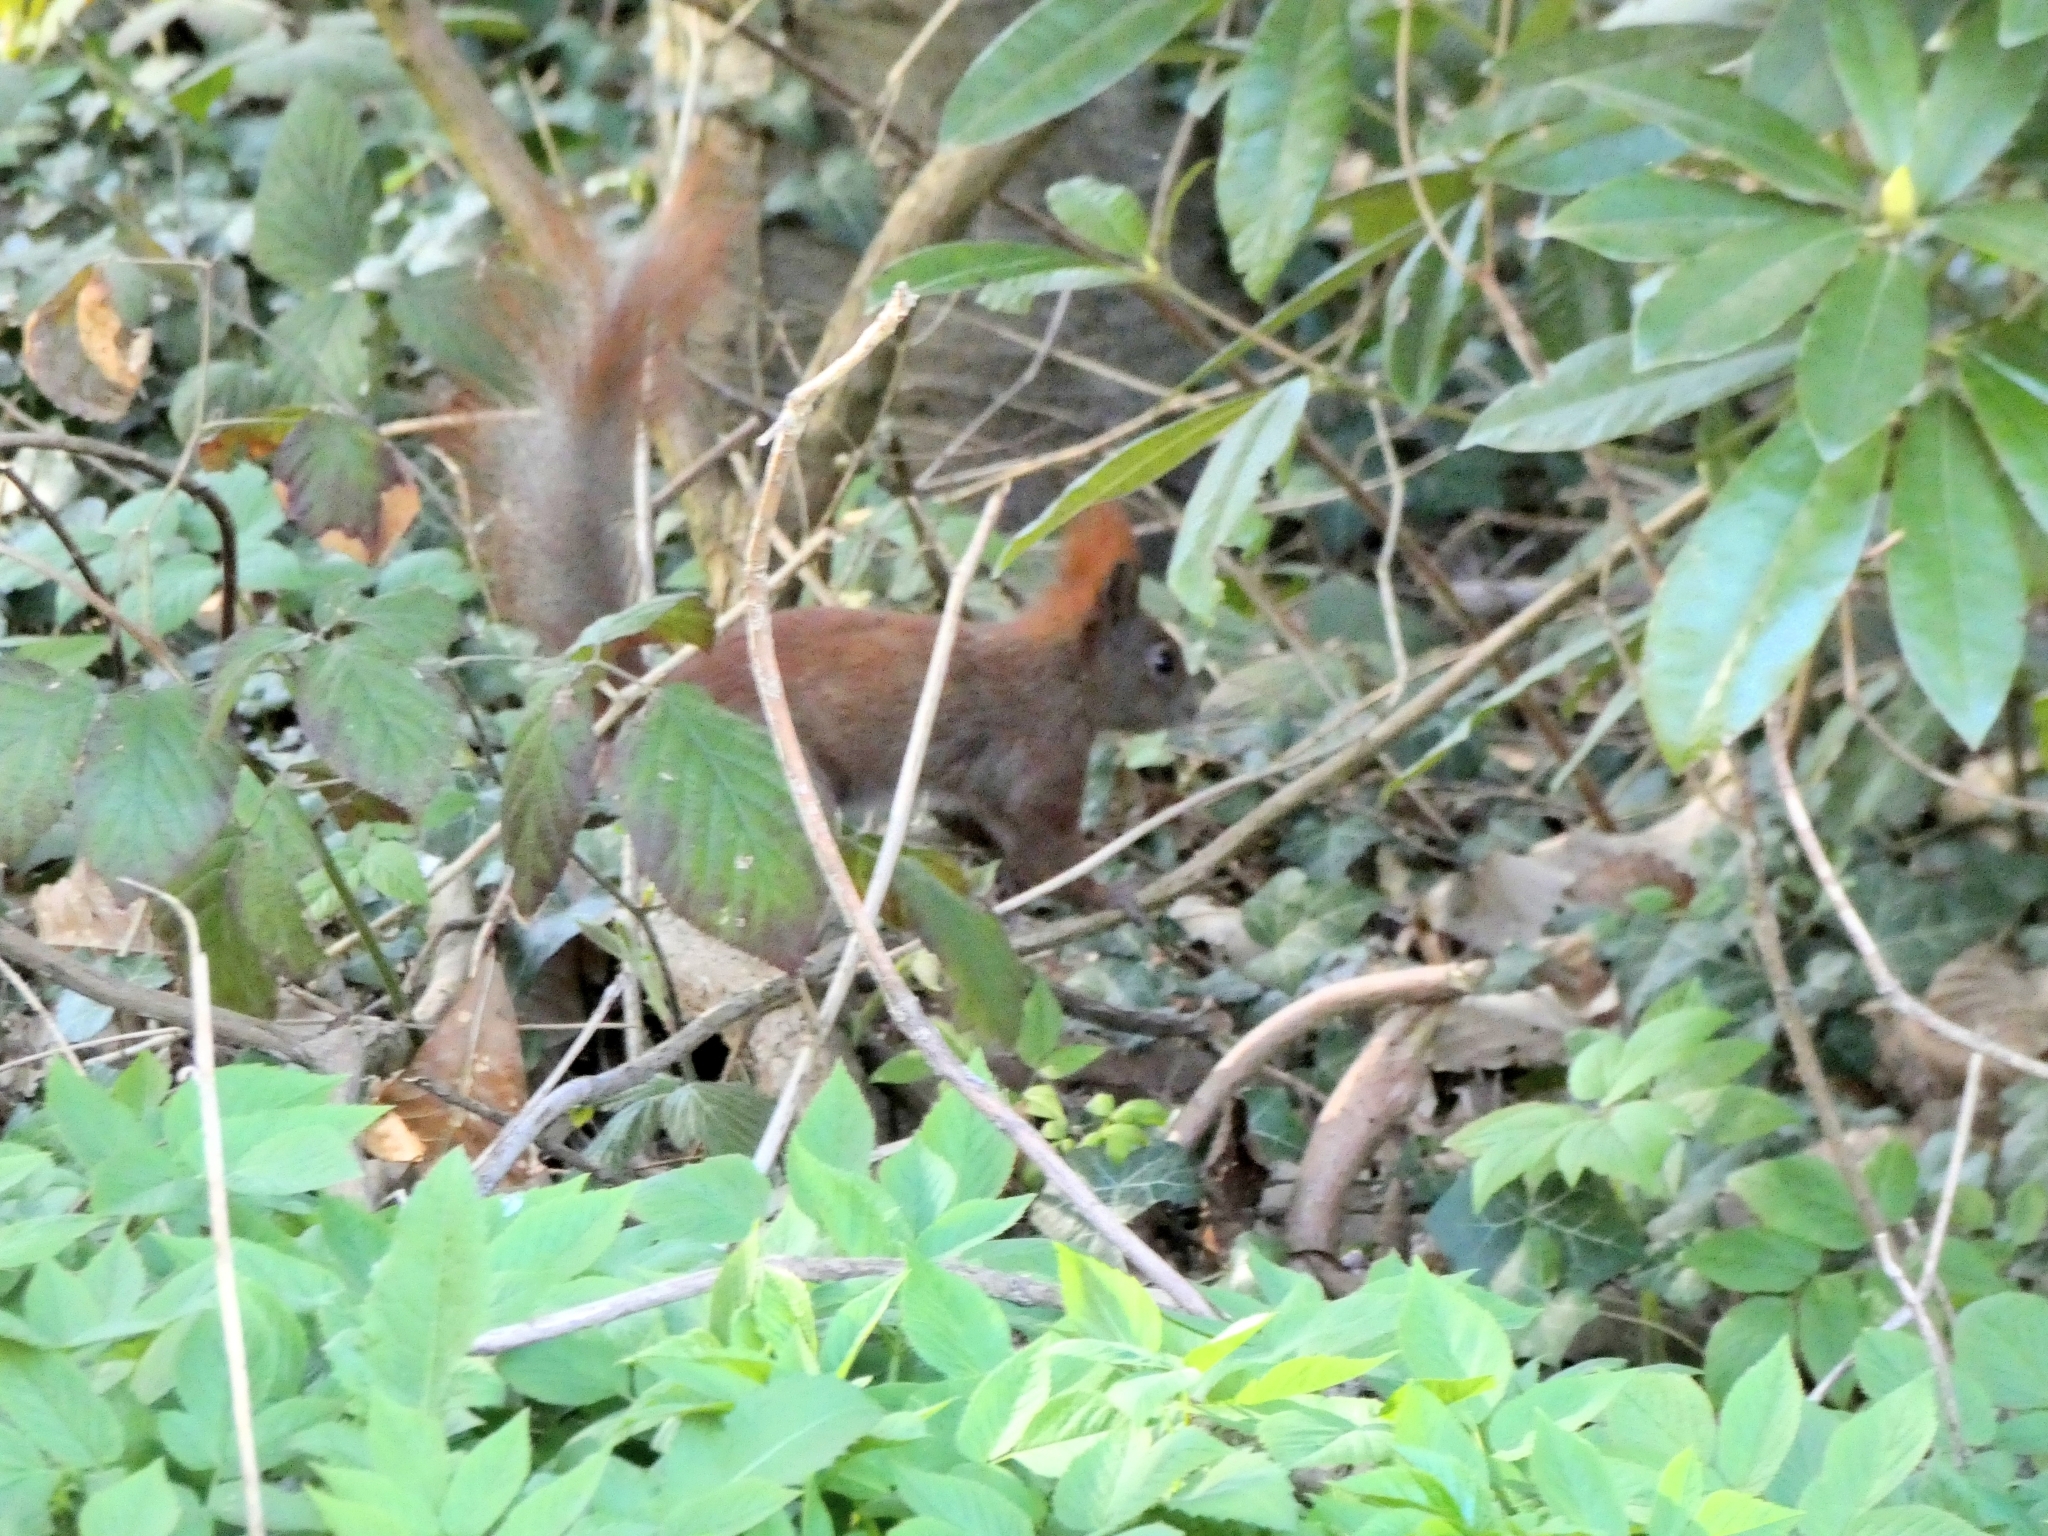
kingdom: Animalia
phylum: Chordata
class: Mammalia
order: Rodentia
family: Sciuridae
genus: Sciurus
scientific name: Sciurus vulgaris
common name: Eurasian red squirrel
